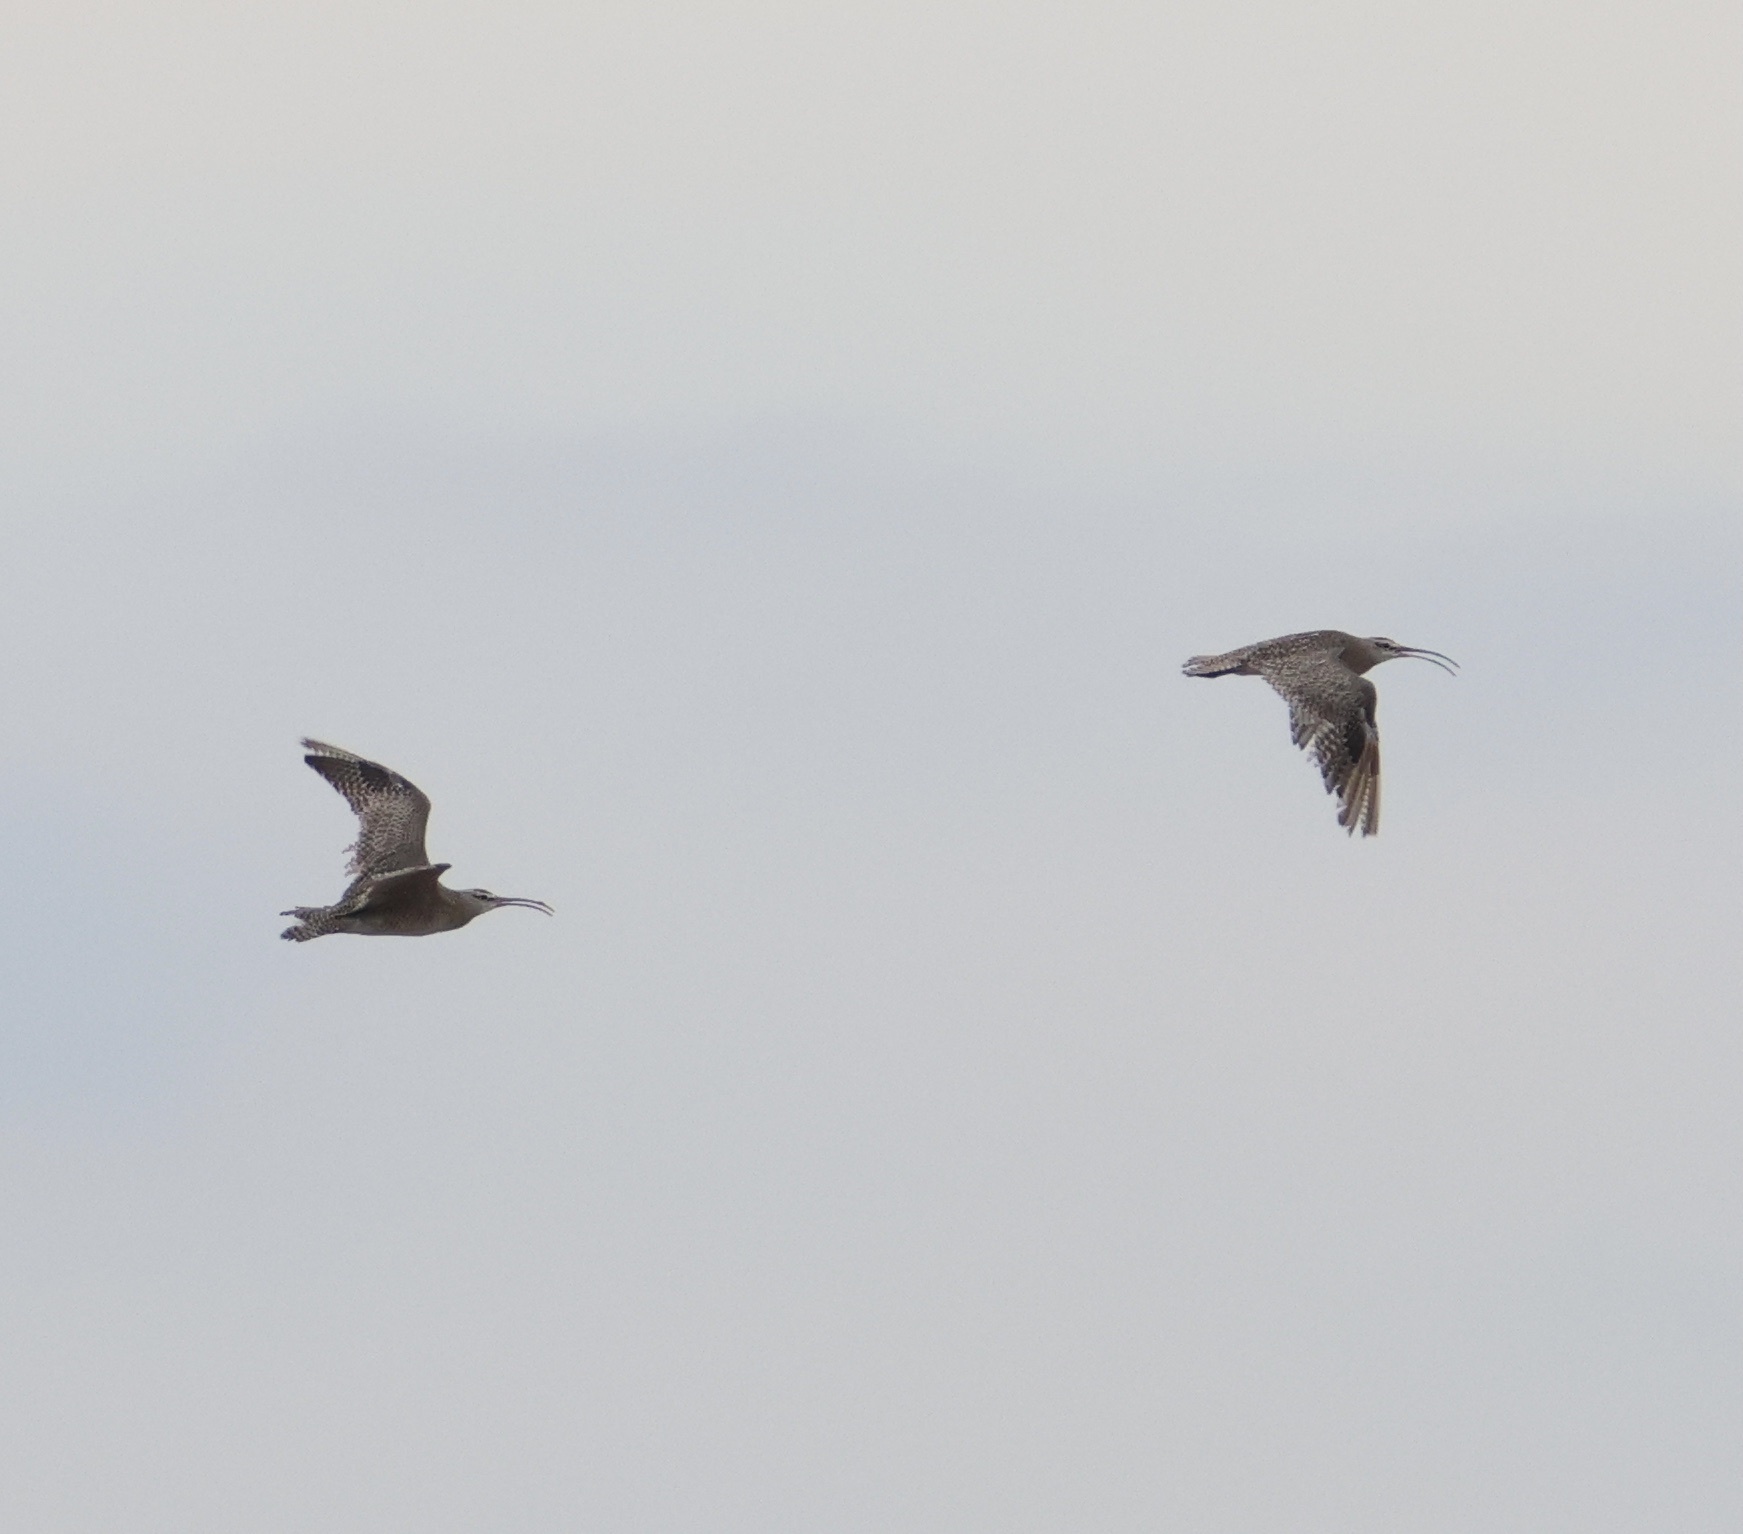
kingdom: Animalia
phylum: Chordata
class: Aves
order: Charadriiformes
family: Scolopacidae
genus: Numenius
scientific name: Numenius phaeopus
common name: Whimbrel
